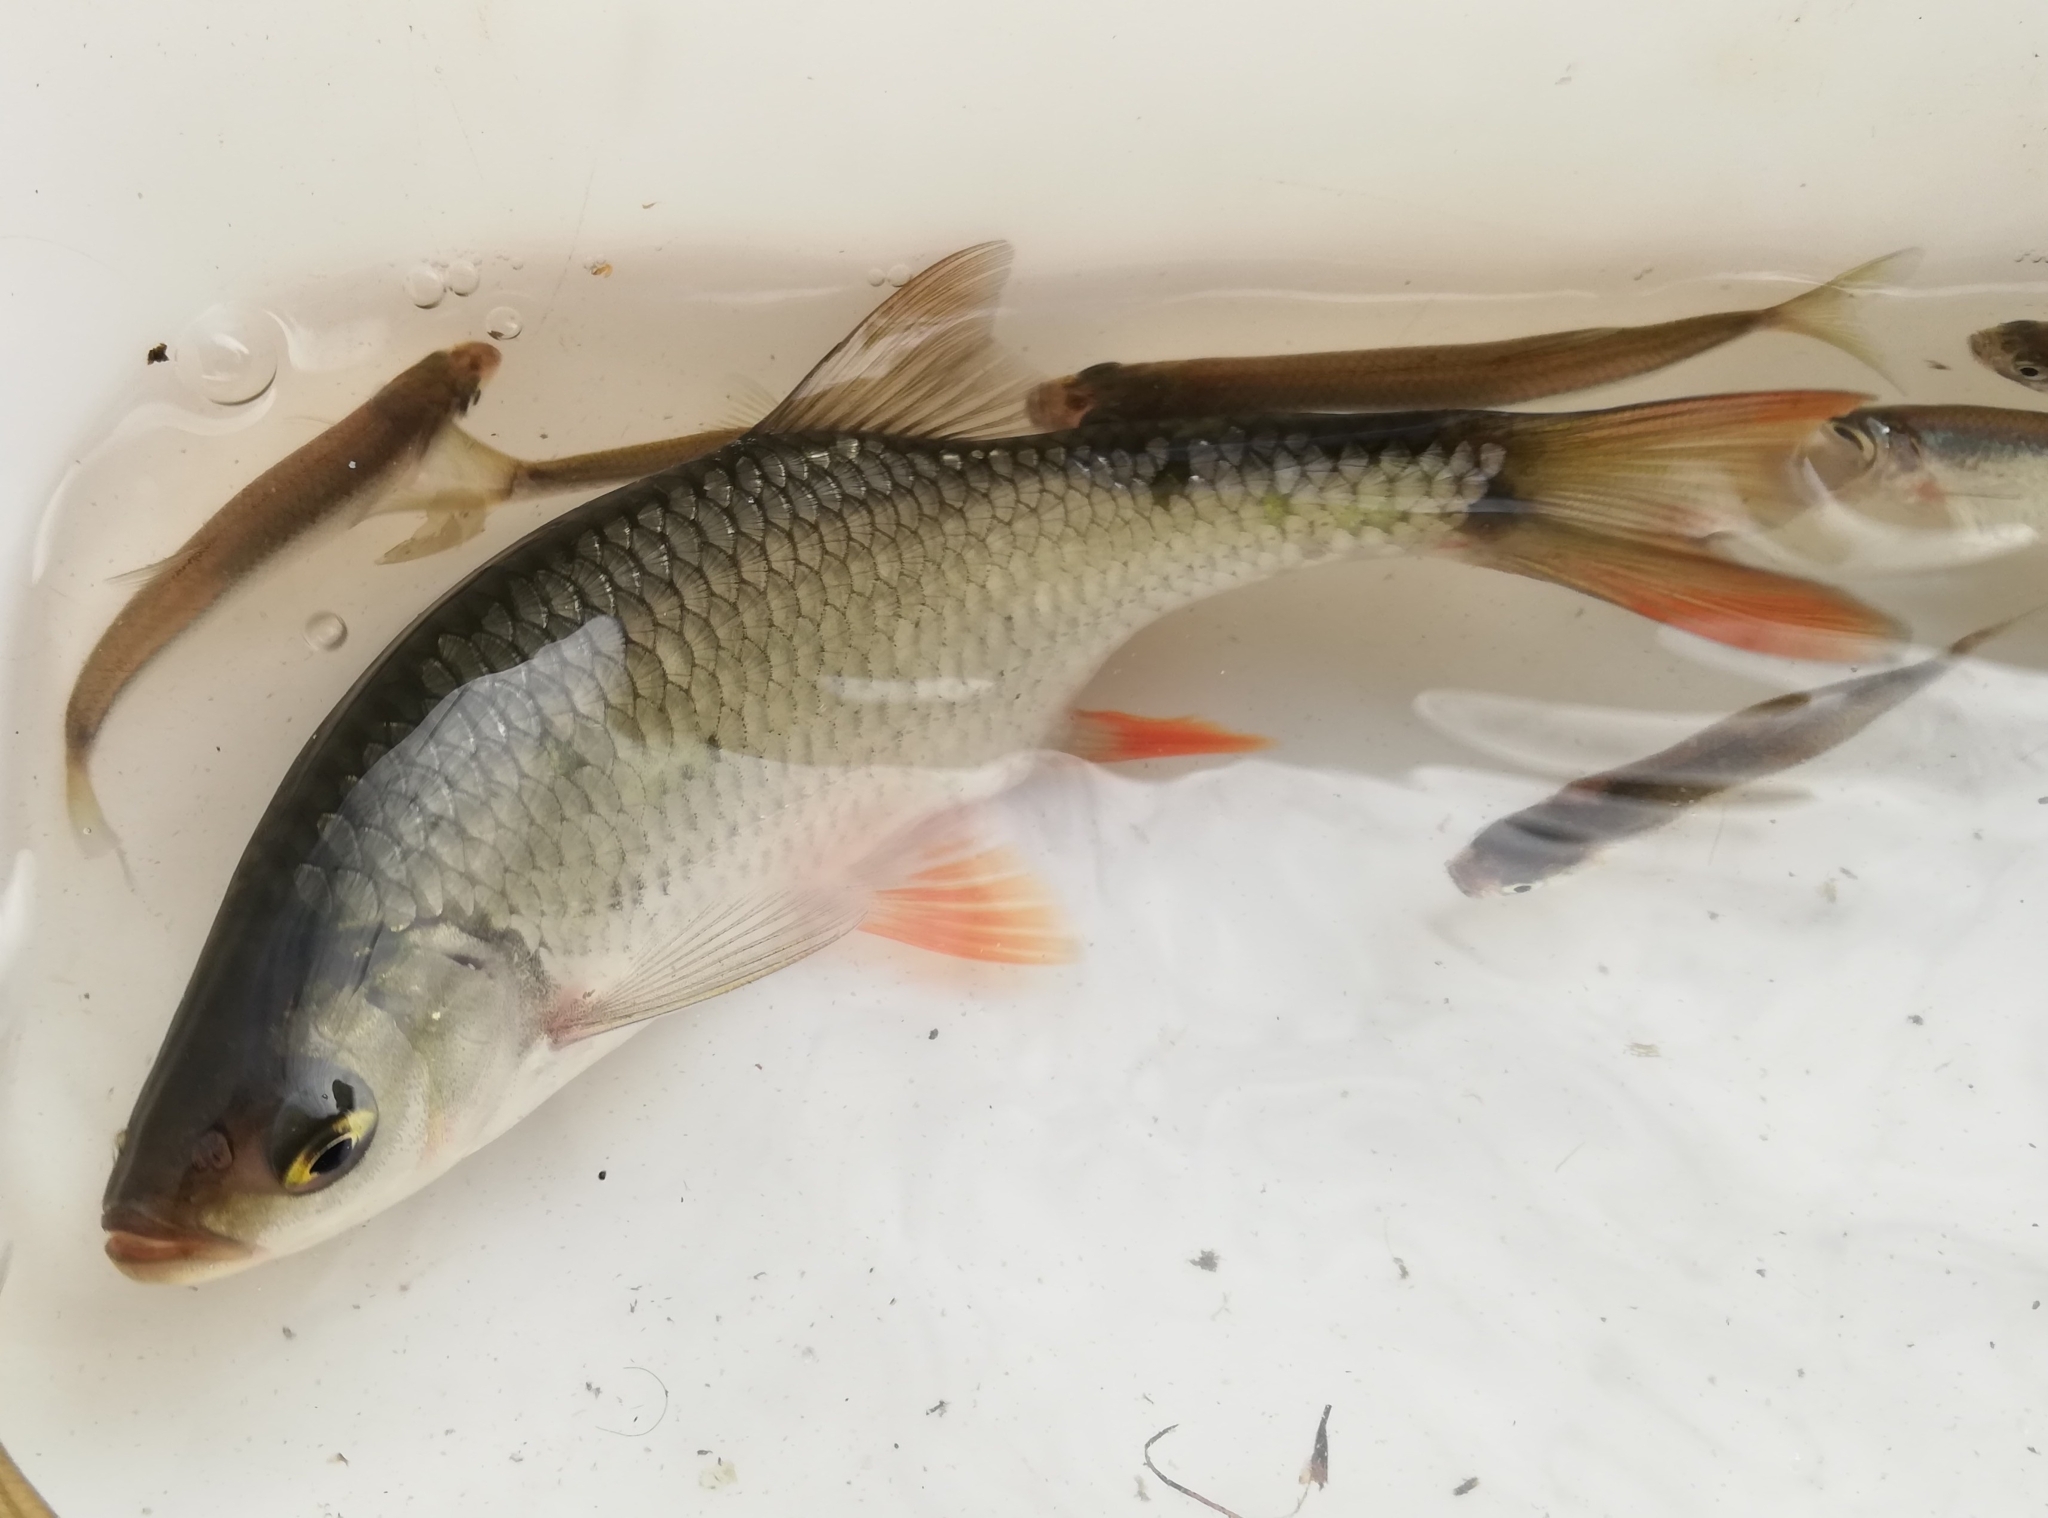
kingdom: Animalia
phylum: Chordata
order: Cypriniformes
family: Cyprinidae
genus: Scardinius
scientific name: Scardinius erythrophthalmus
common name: Rudd
